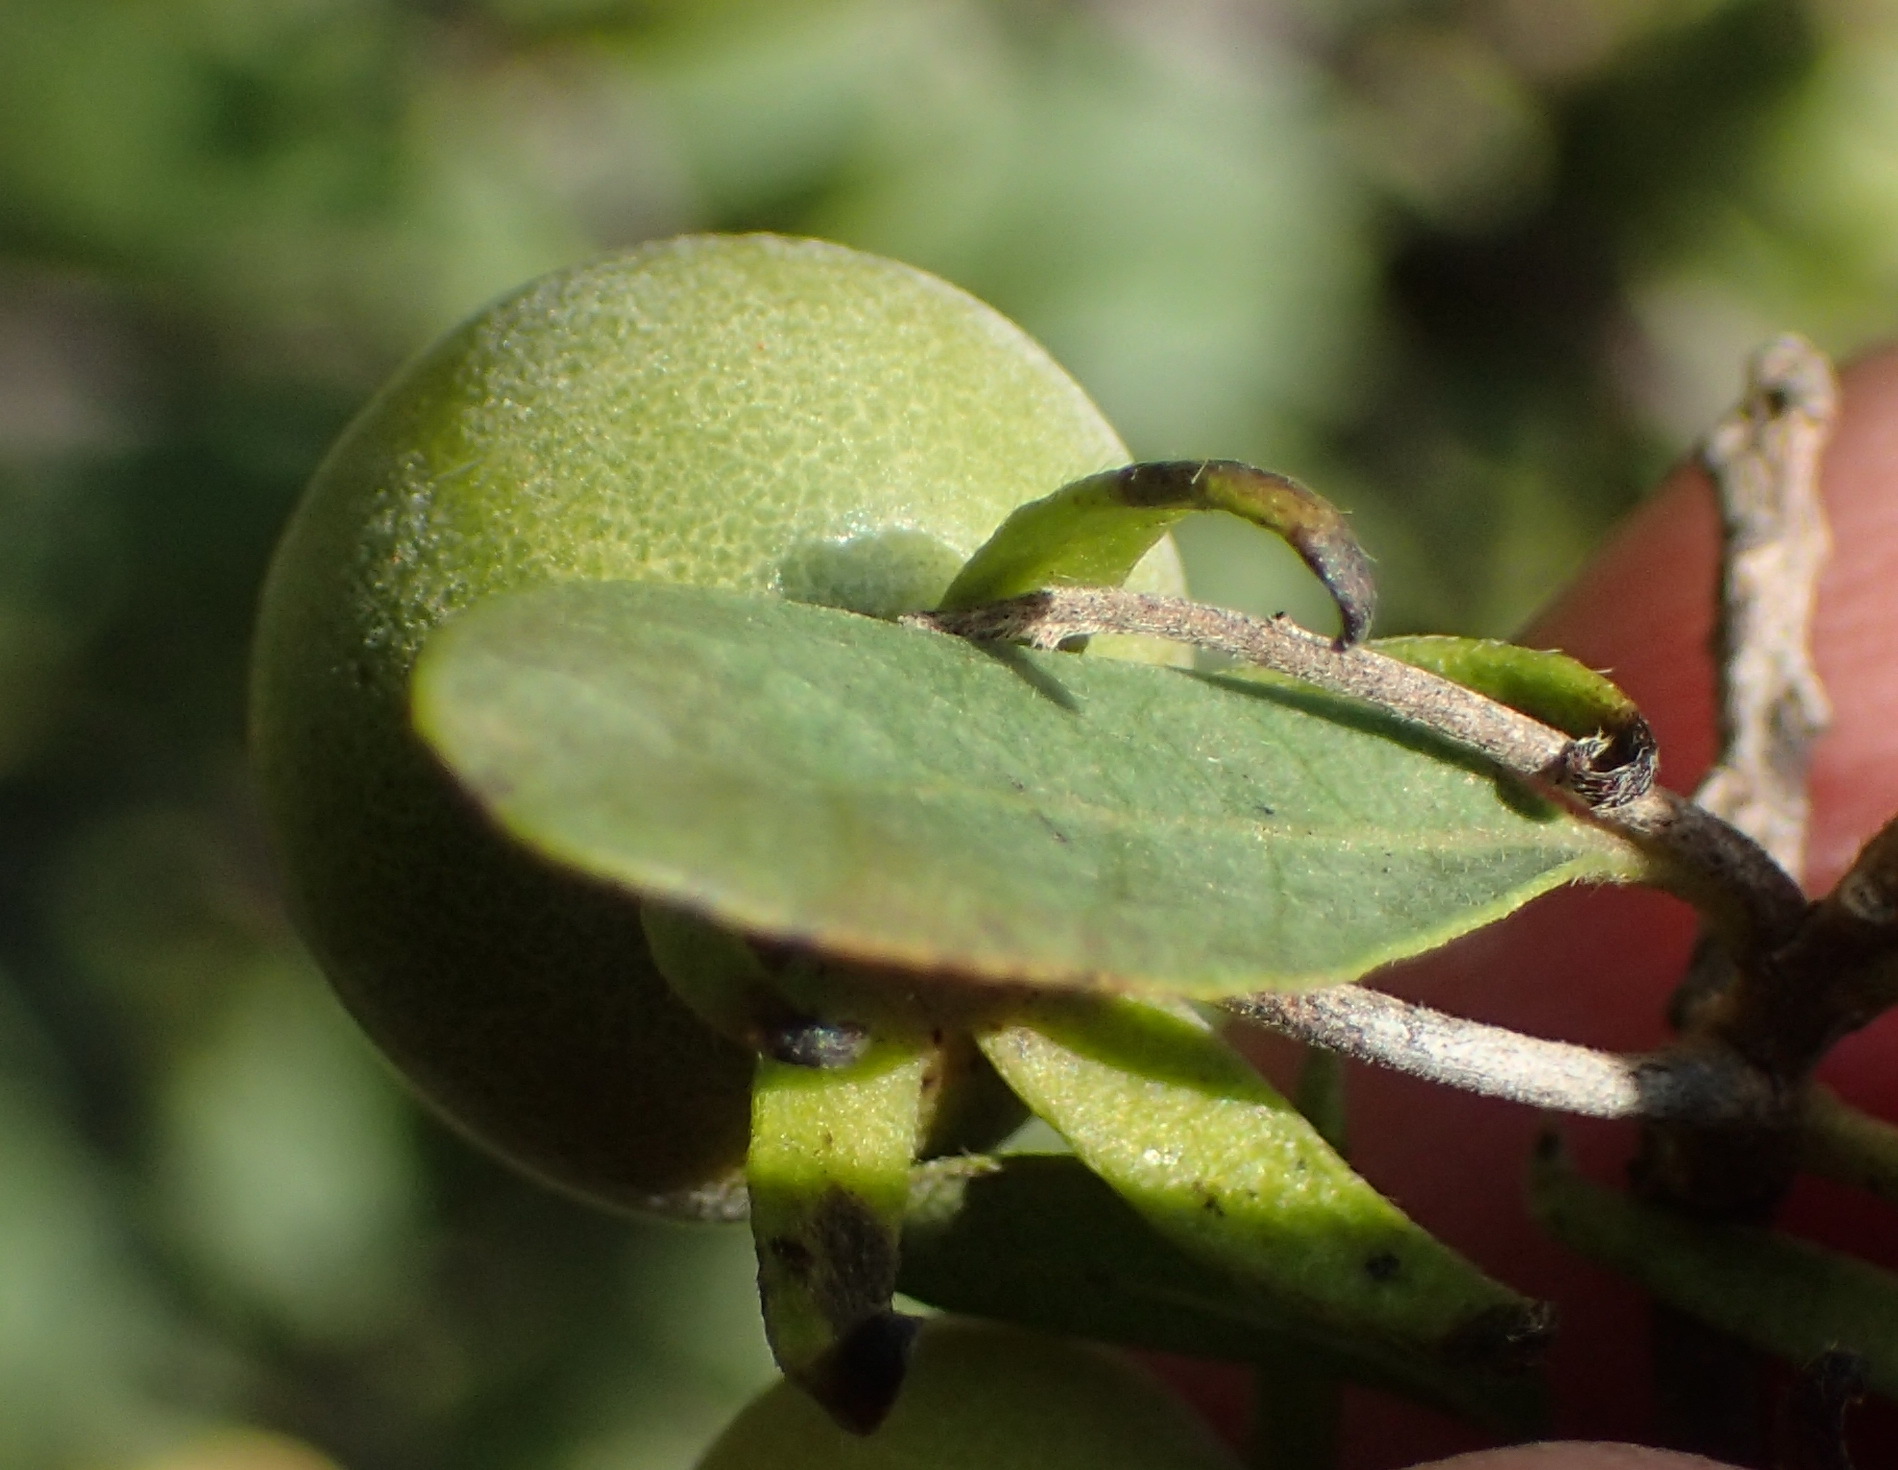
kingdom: Plantae
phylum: Tracheophyta
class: Magnoliopsida
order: Ericales
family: Ebenaceae
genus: Diospyros
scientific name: Diospyros lycioides
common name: Red star apple
